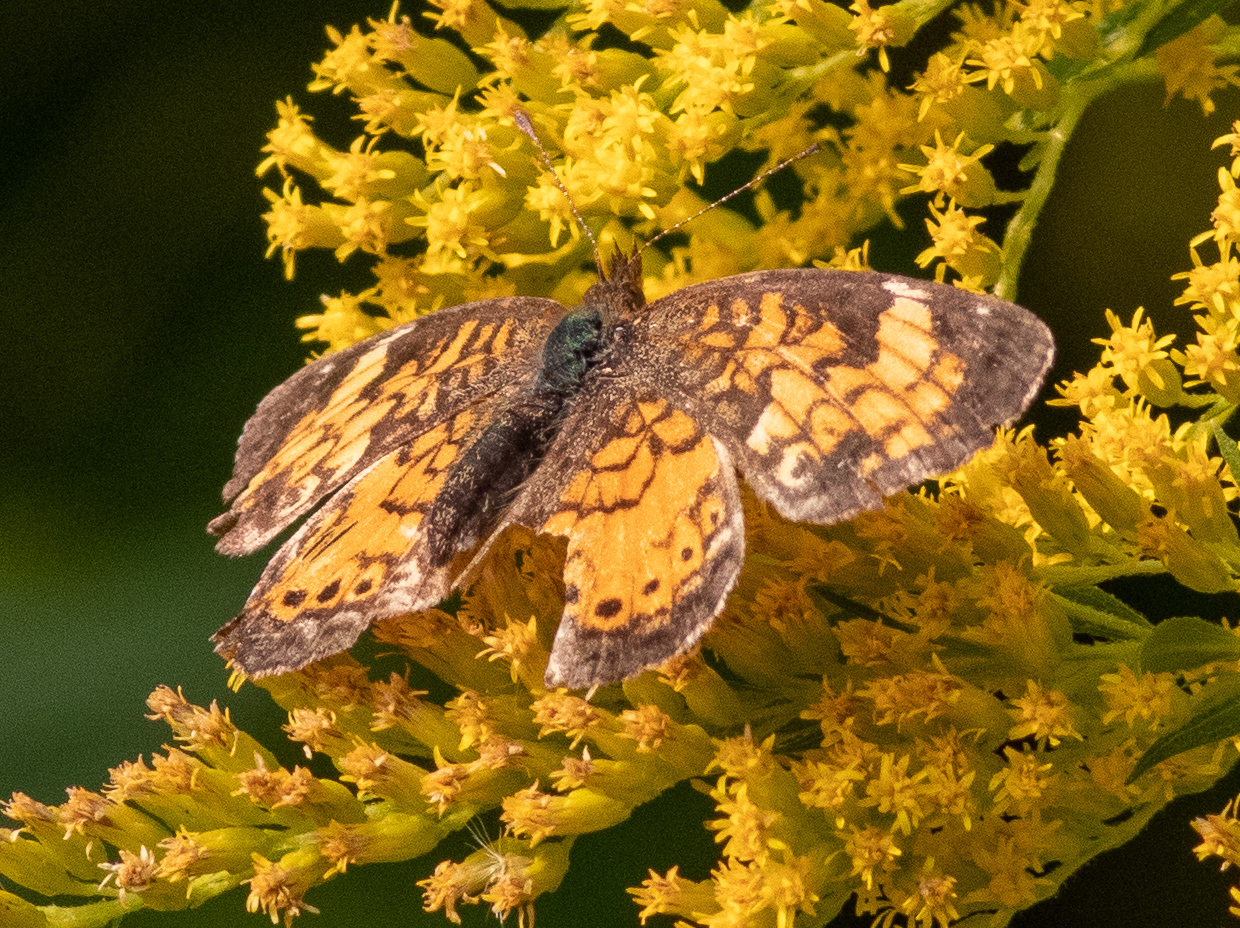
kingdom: Animalia
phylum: Arthropoda
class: Insecta
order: Lepidoptera
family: Nymphalidae
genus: Phyciodes
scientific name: Phyciodes tharos
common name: Pearl crescent
